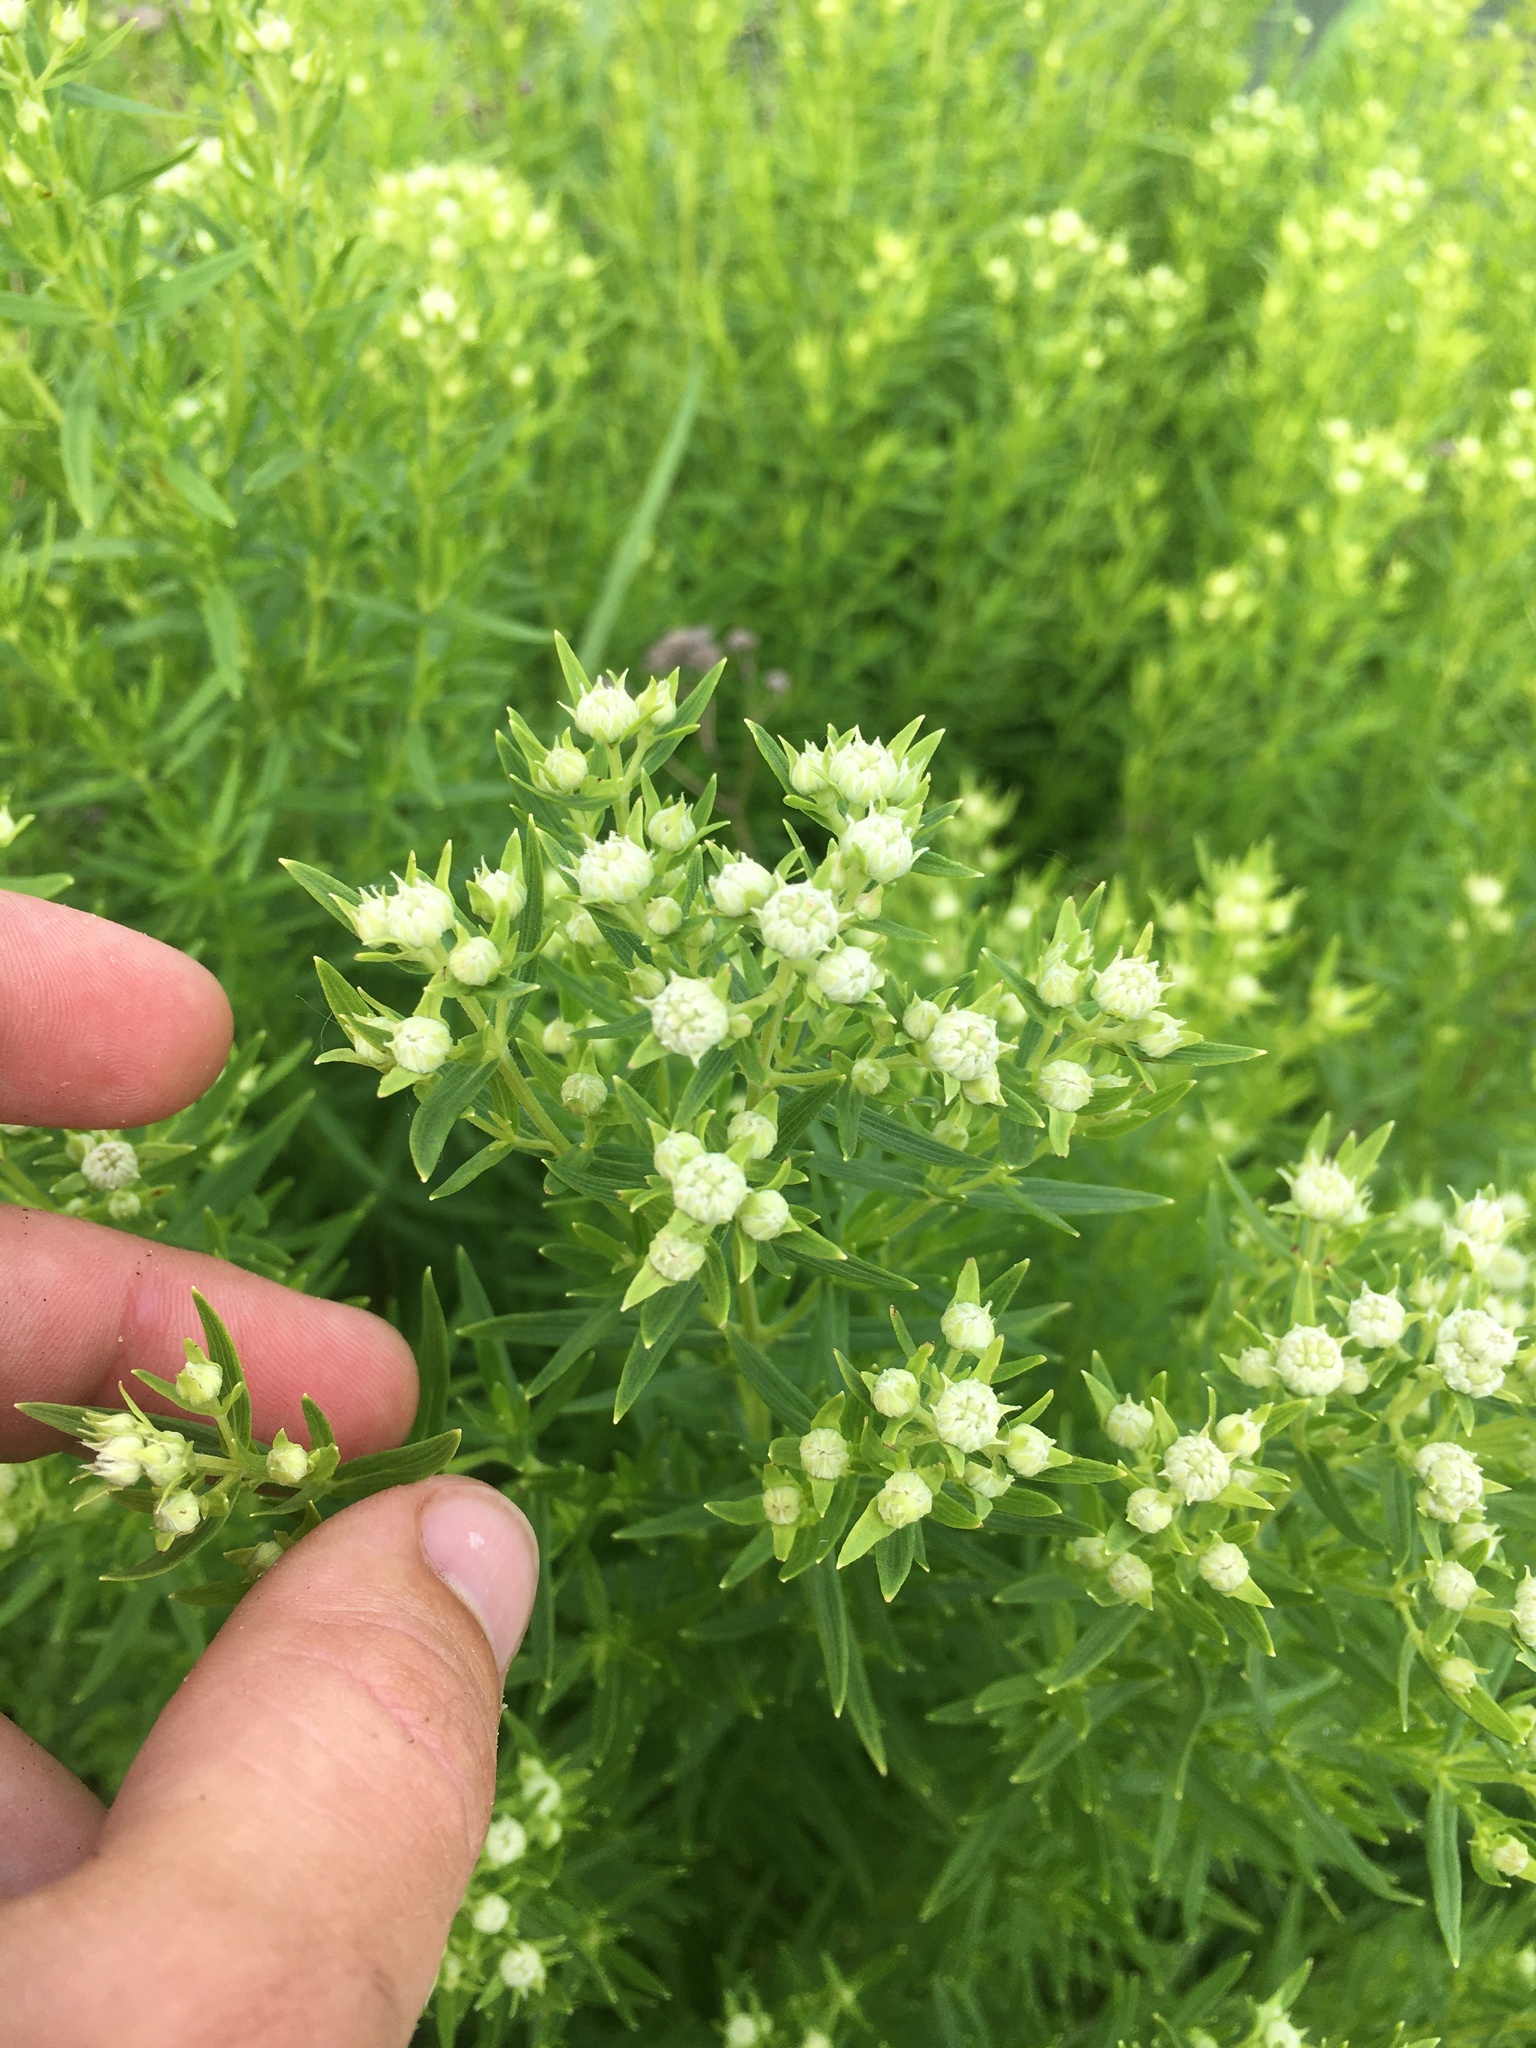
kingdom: Plantae
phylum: Tracheophyta
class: Magnoliopsida
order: Lamiales
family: Lamiaceae
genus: Pycnanthemum
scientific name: Pycnanthemum virginianum
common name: Virginia mountain-mint
